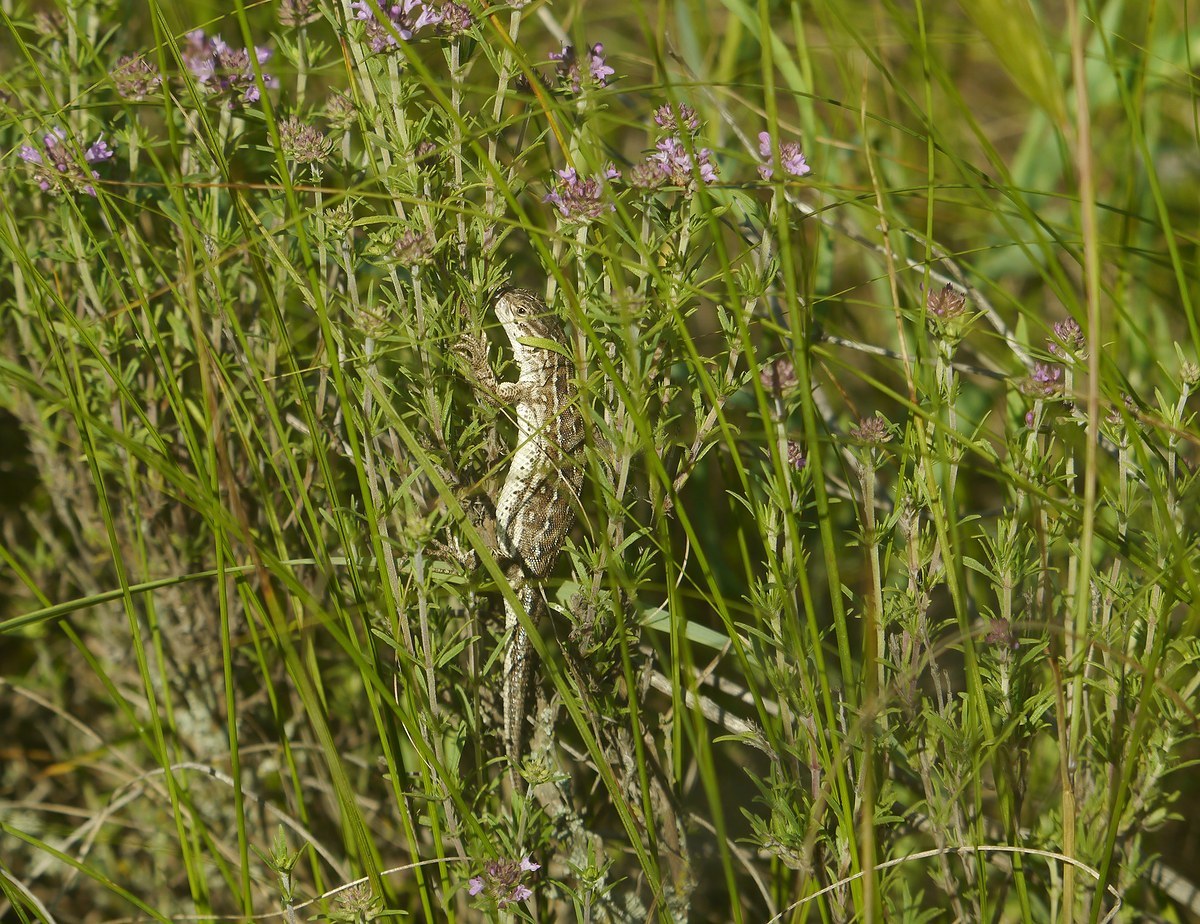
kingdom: Animalia
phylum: Chordata
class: Squamata
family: Lacertidae
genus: Eremias
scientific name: Eremias arguta
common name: Racerunner
